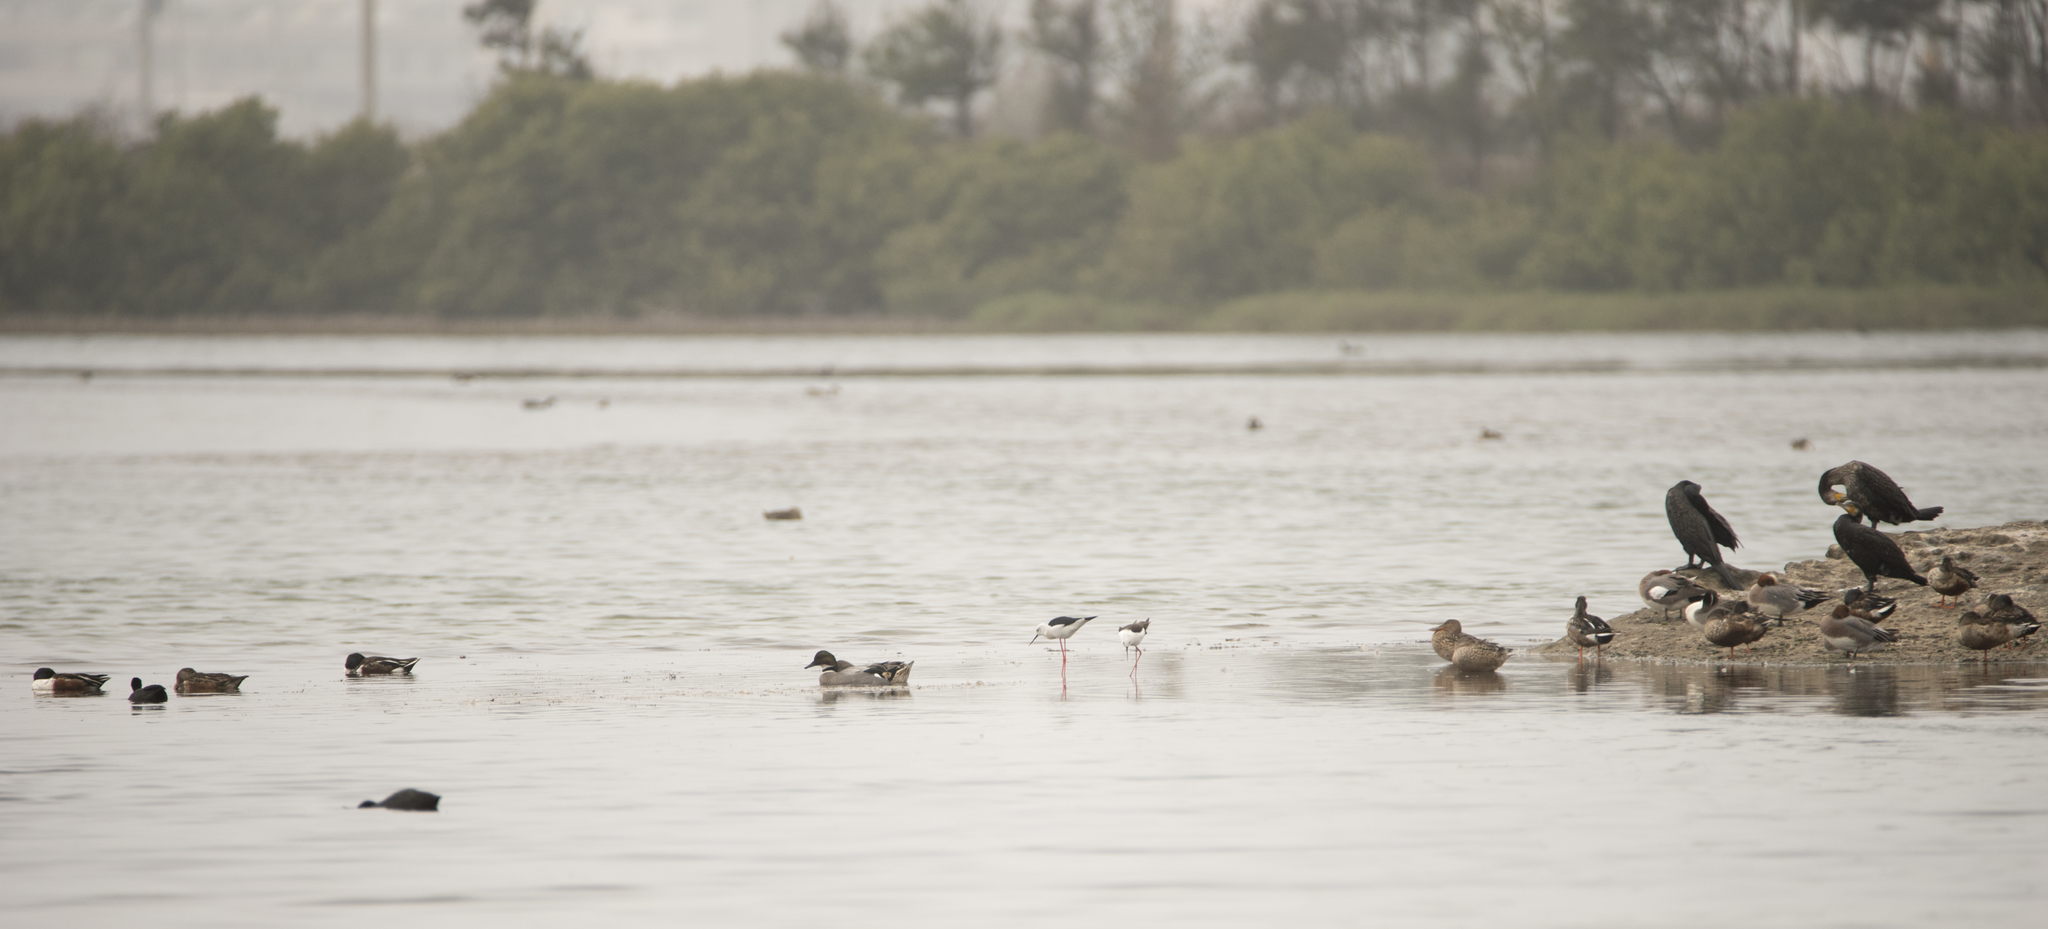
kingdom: Animalia
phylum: Chordata
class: Aves
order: Anseriformes
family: Anatidae
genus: Mareca
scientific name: Mareca falcata
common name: Falcated duck
